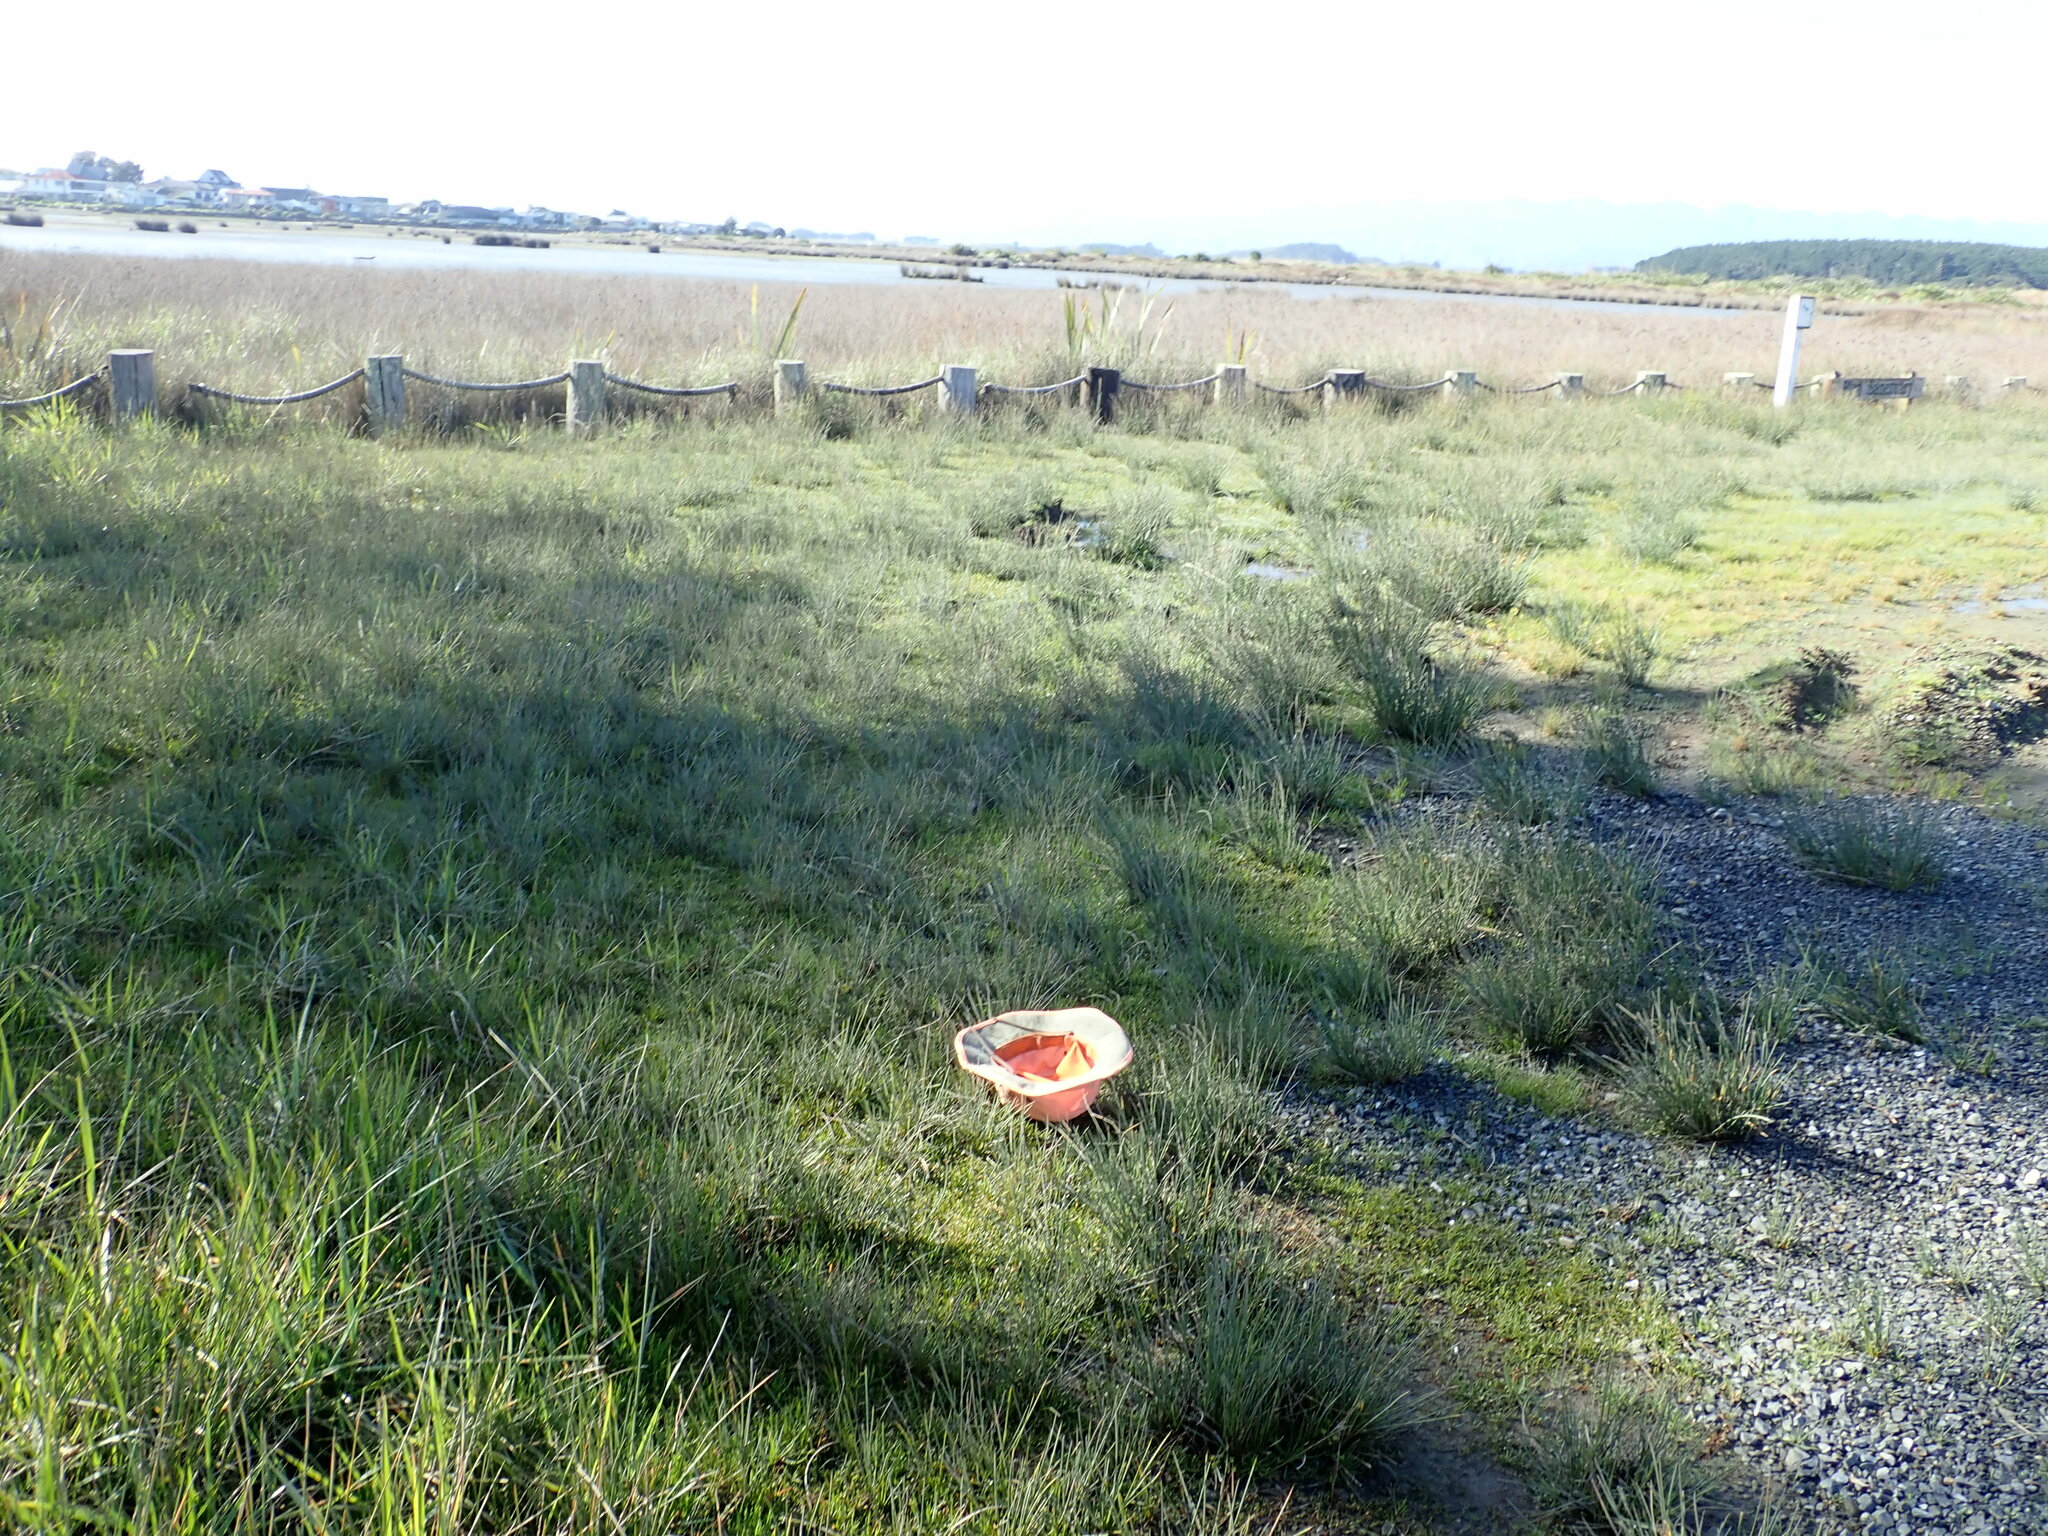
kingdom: Plantae
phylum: Tracheophyta
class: Magnoliopsida
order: Asterales
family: Goodeniaceae
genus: Goodenia
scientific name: Goodenia radicans
